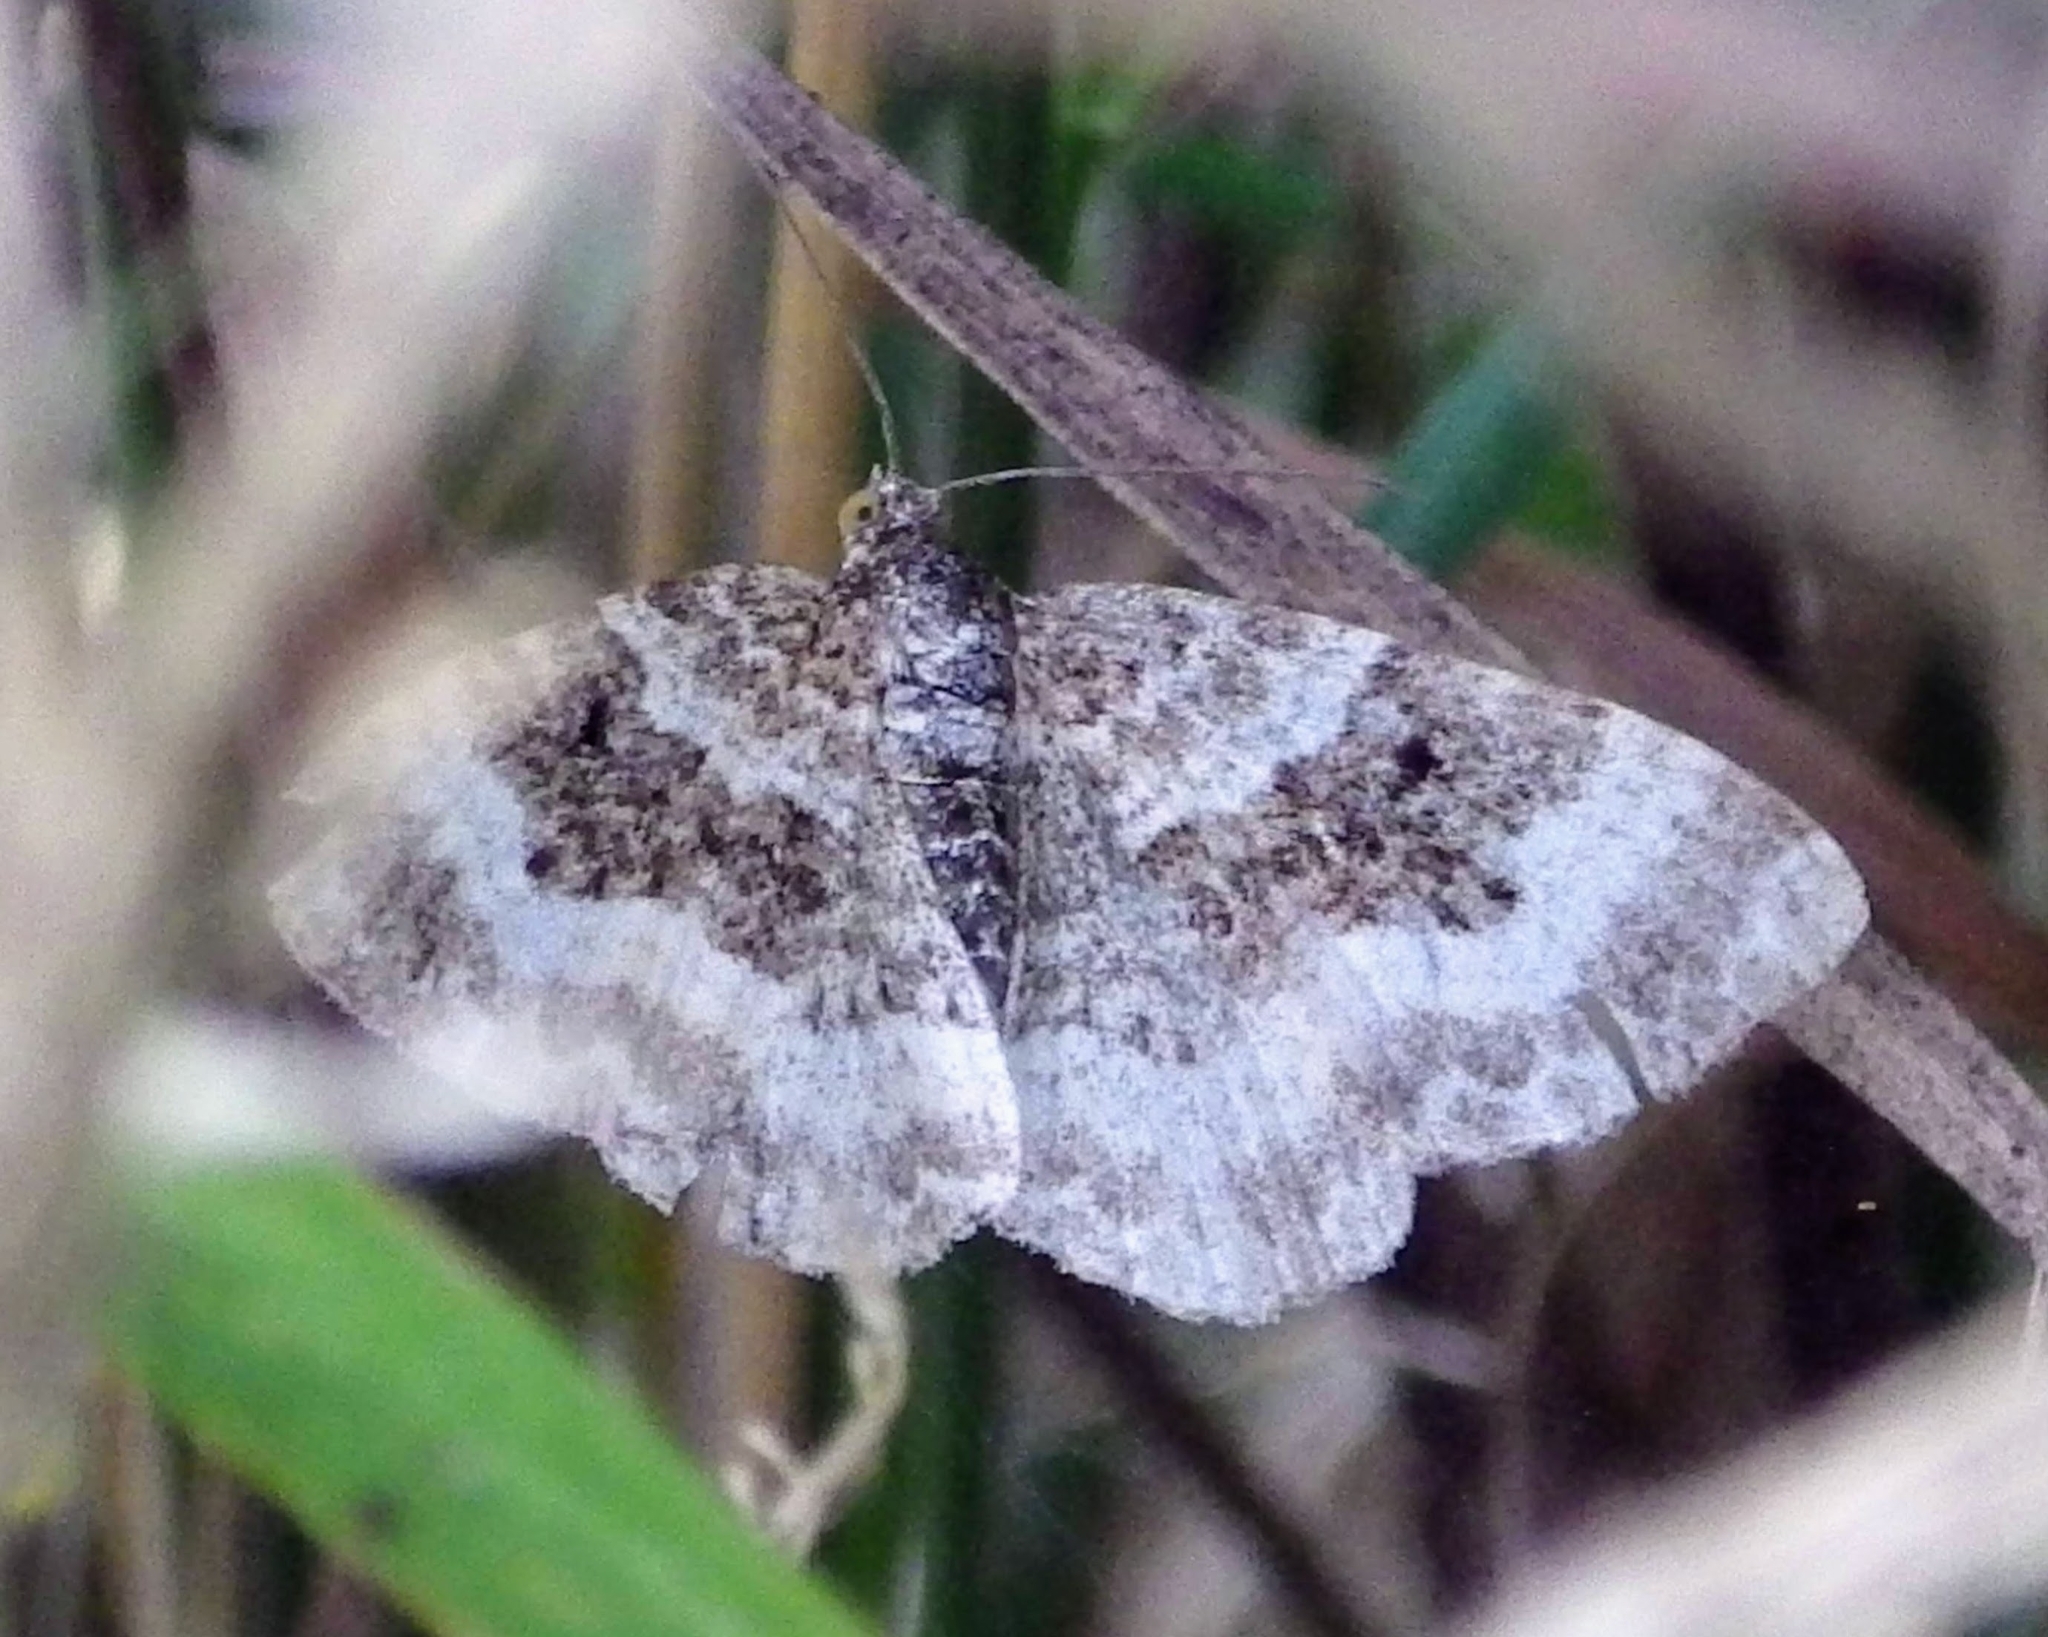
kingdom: Animalia
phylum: Arthropoda
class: Insecta
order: Lepidoptera
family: Geometridae
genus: Epirrhoe
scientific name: Epirrhoe alternata
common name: Common carpet
